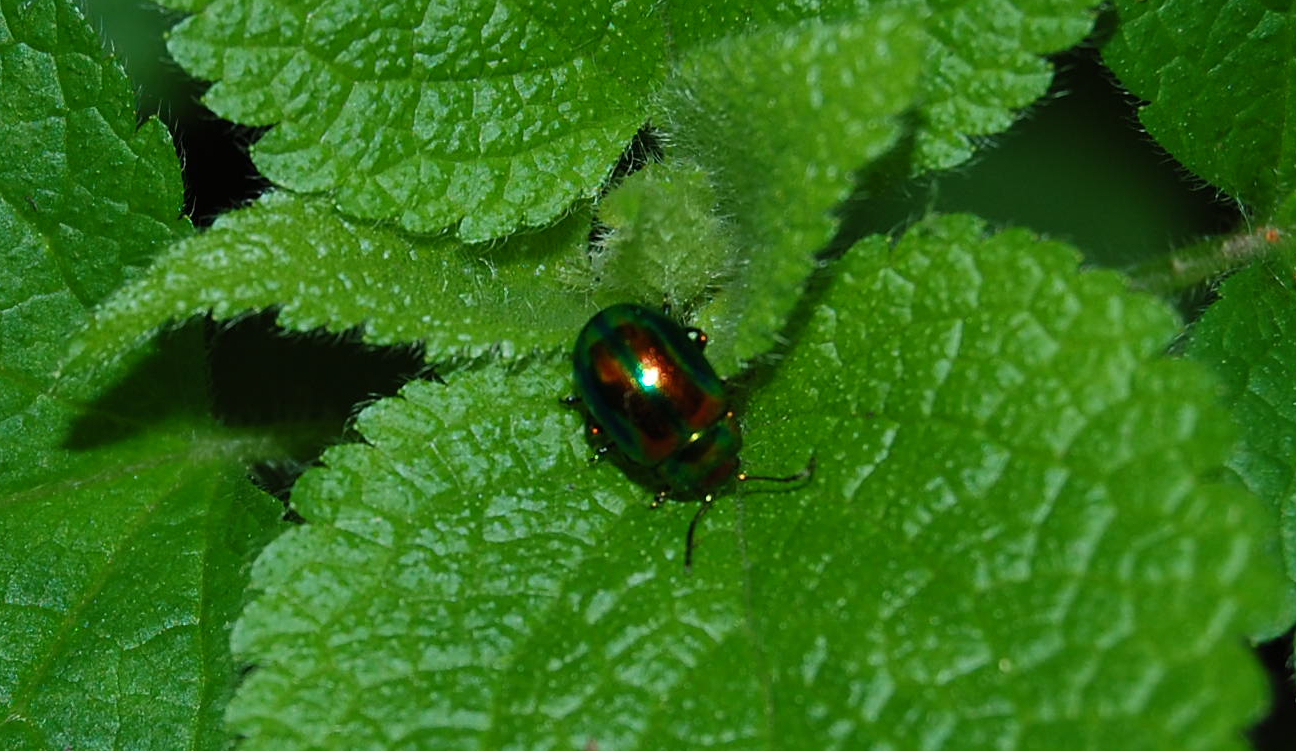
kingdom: Animalia
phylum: Arthropoda
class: Insecta
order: Coleoptera
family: Chrysomelidae
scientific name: Chrysomelidae
